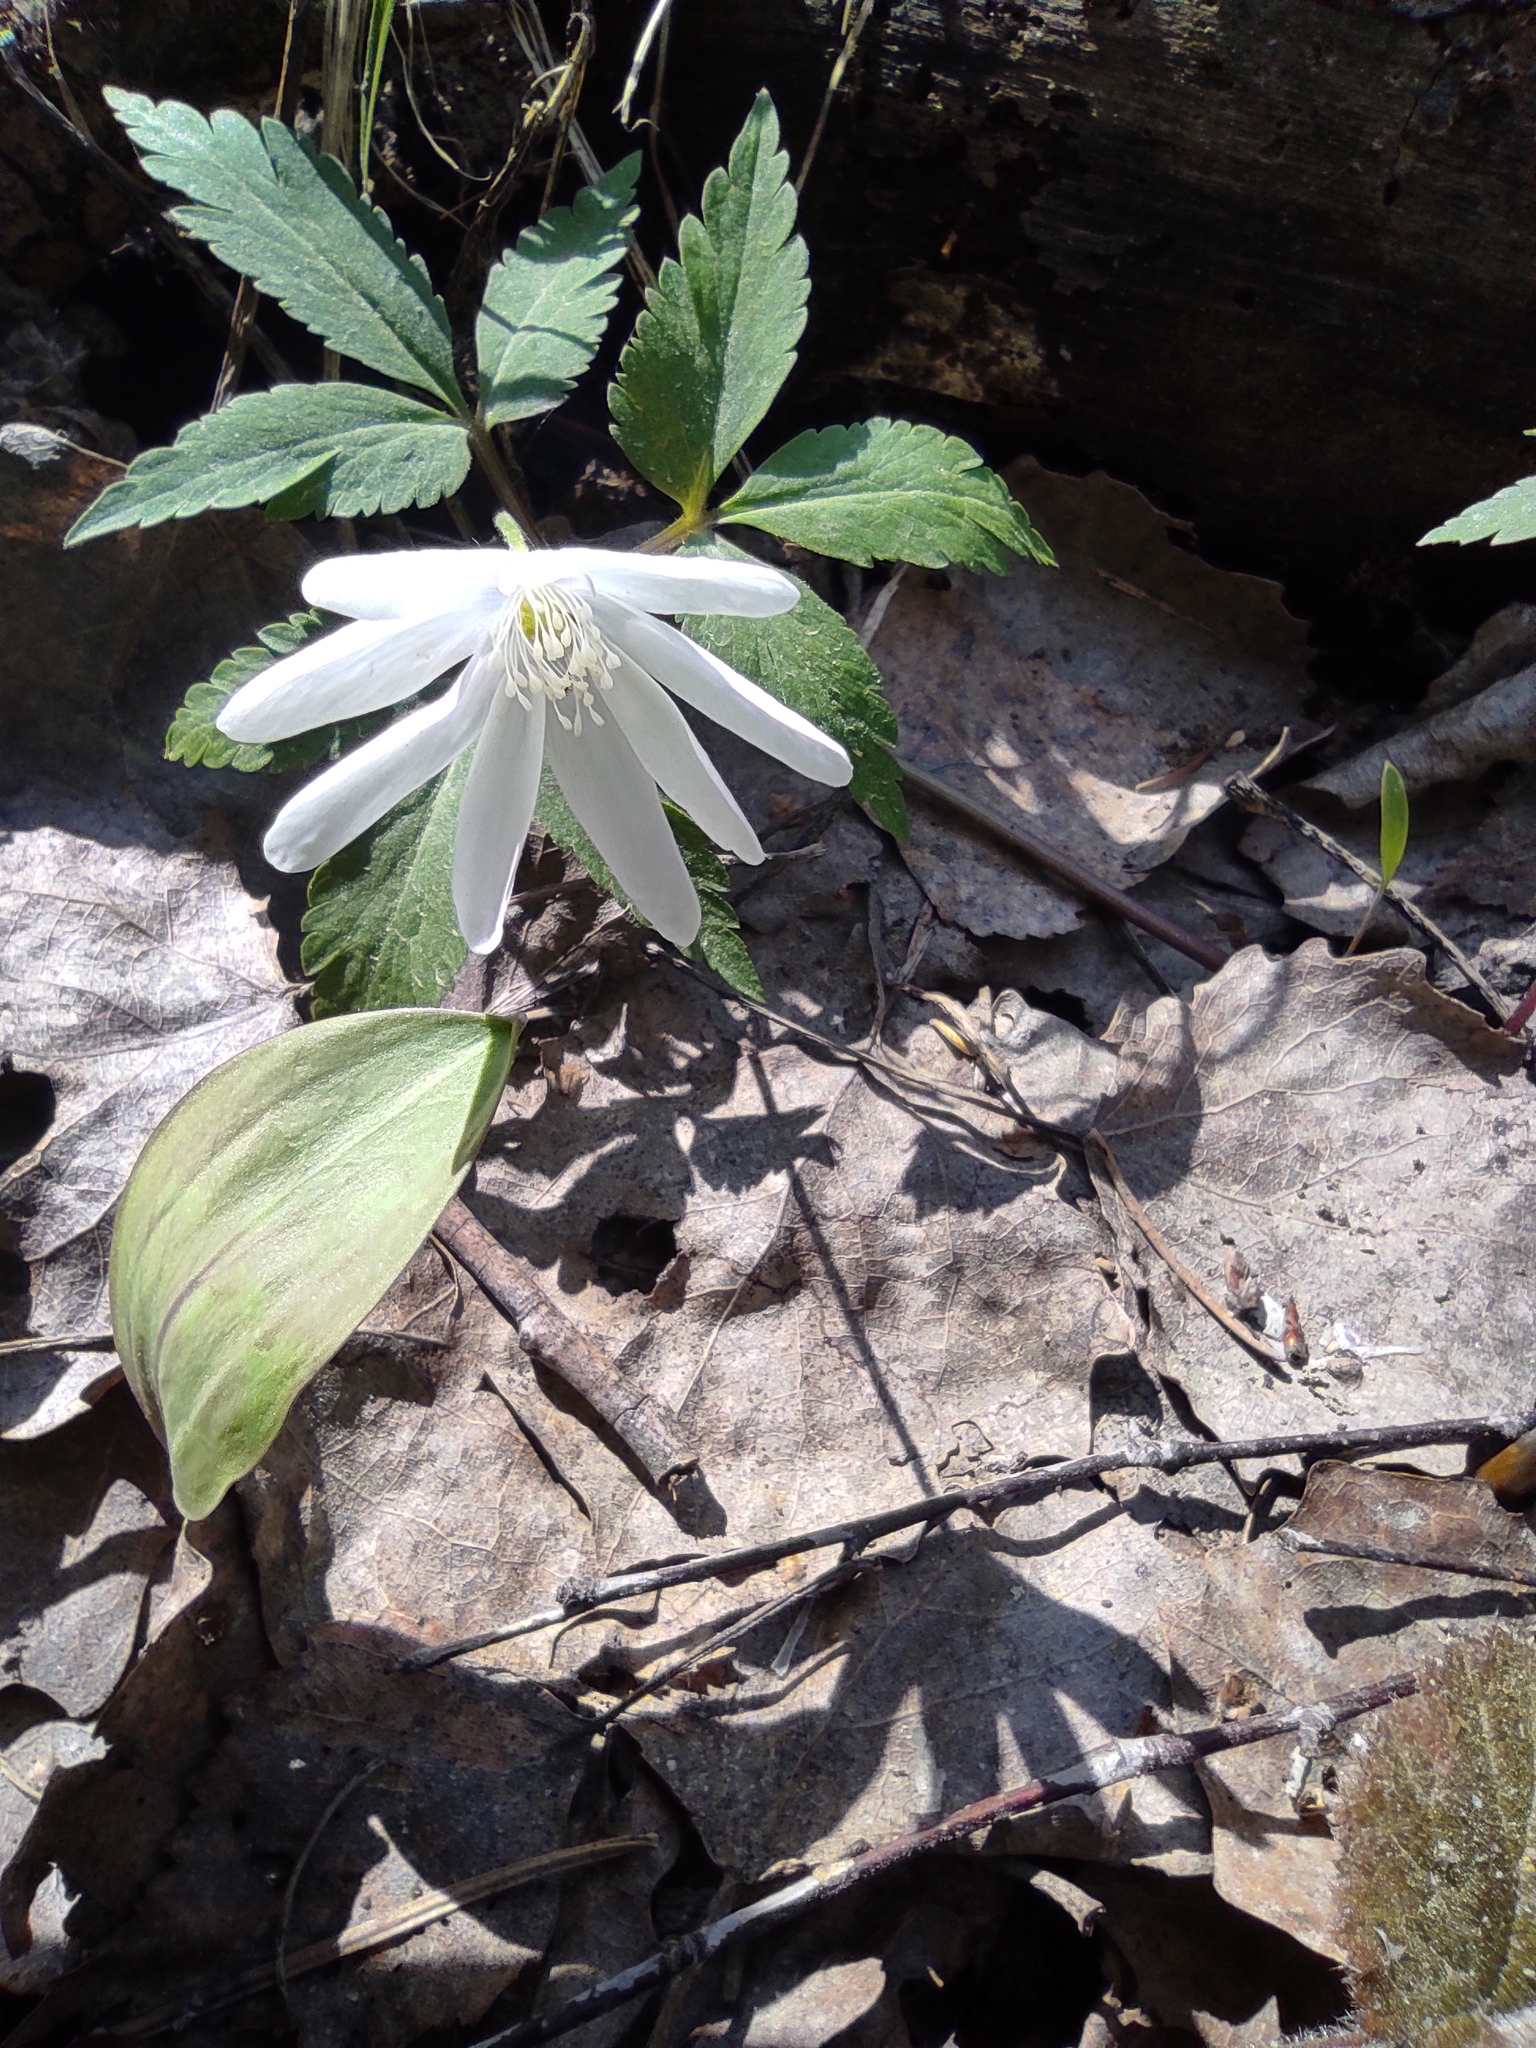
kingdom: Plantae
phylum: Tracheophyta
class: Magnoliopsida
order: Ranunculales
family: Ranunculaceae
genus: Anemone
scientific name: Anemone altaica
